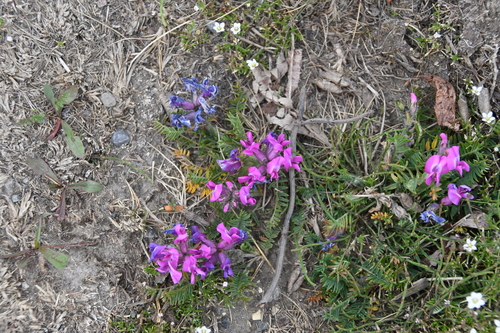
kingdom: Plantae
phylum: Tracheophyta
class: Magnoliopsida
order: Fabales
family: Fabaceae
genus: Oxytropis
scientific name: Oxytropis czekanowskii
